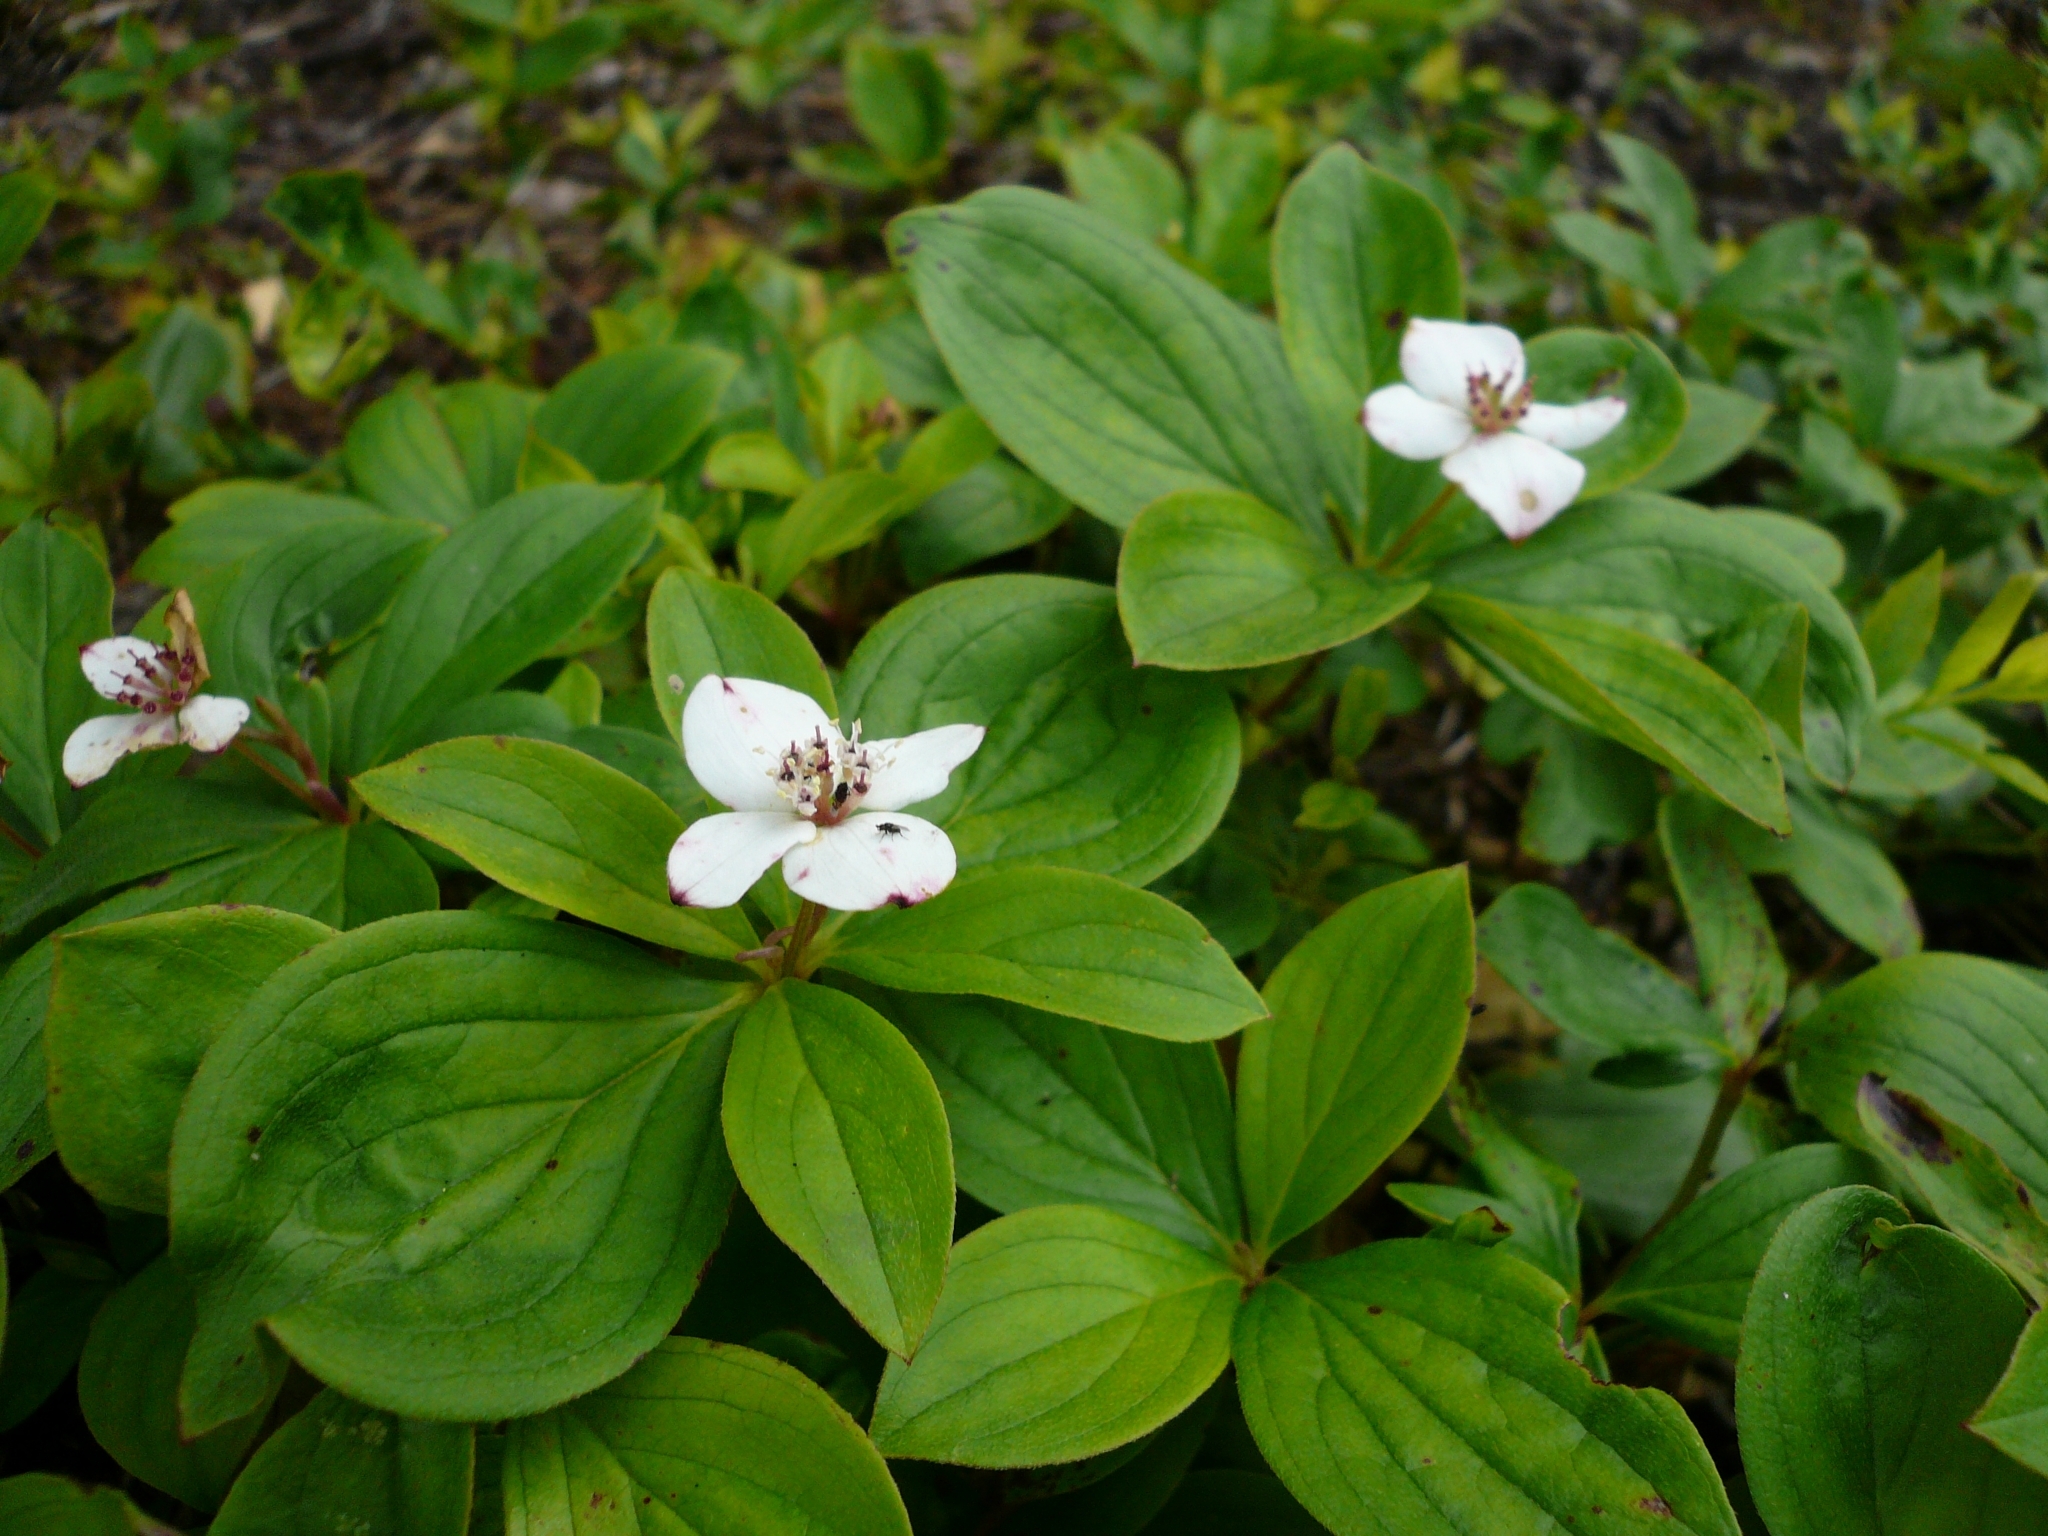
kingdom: Plantae
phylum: Tracheophyta
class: Magnoliopsida
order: Cornales
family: Cornaceae
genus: Cornus
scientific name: Cornus canadensis
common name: Creeping dogwood
